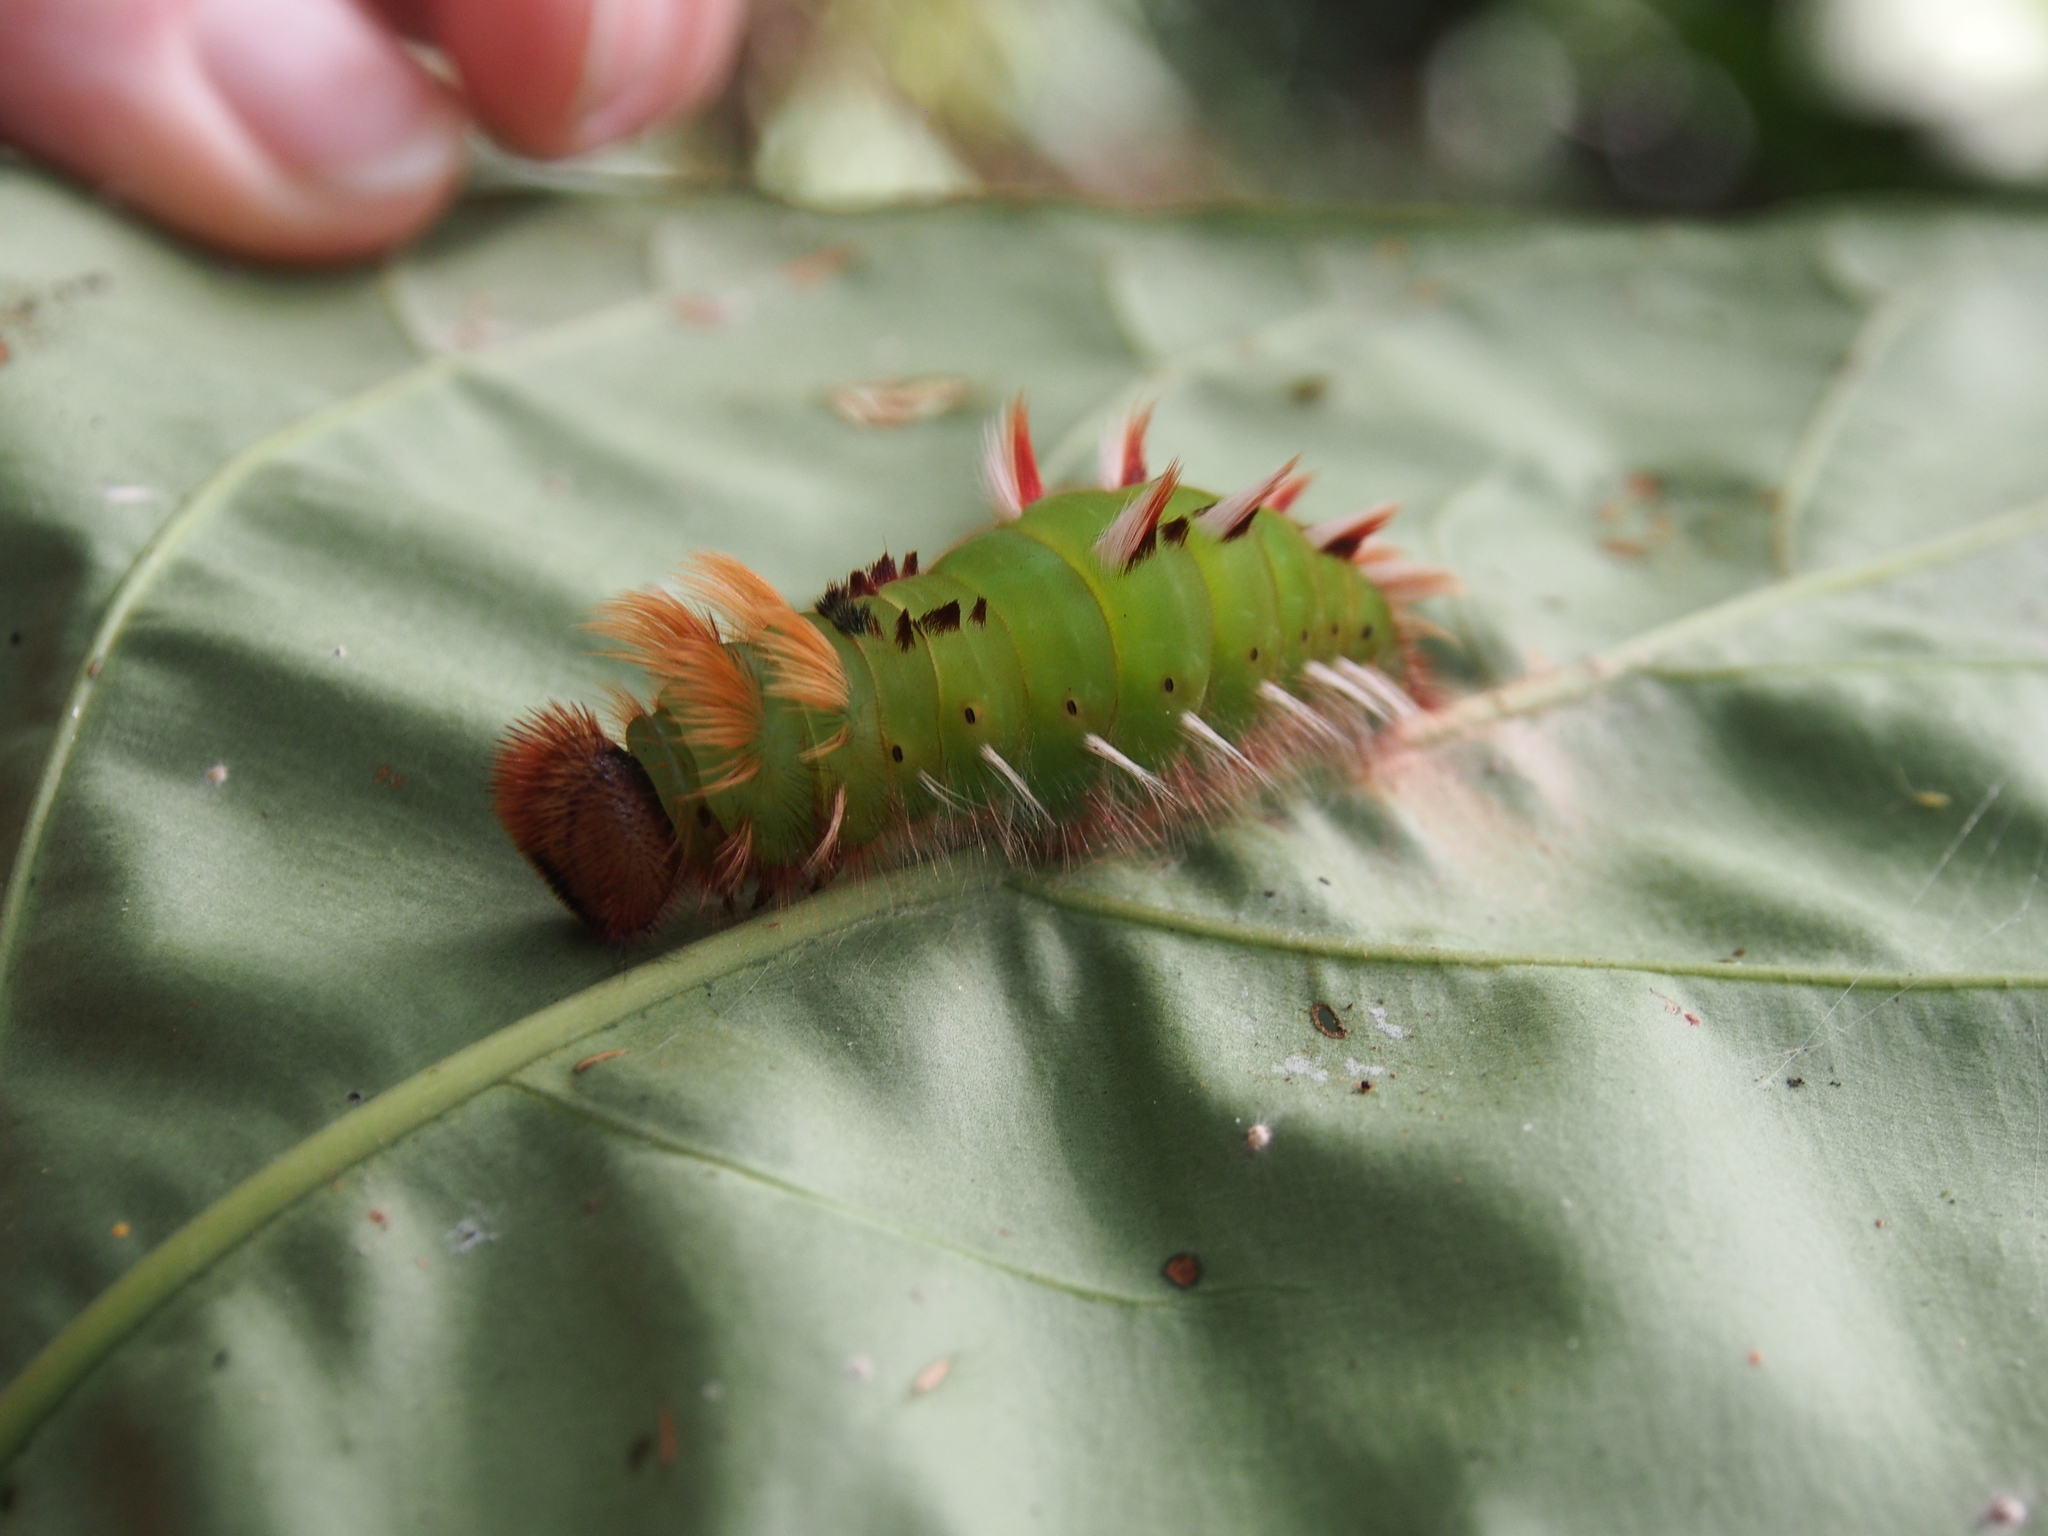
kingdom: Animalia
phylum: Arthropoda
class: Insecta
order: Lepidoptera
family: Nymphalidae
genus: Morpho
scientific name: Morpho helenor
